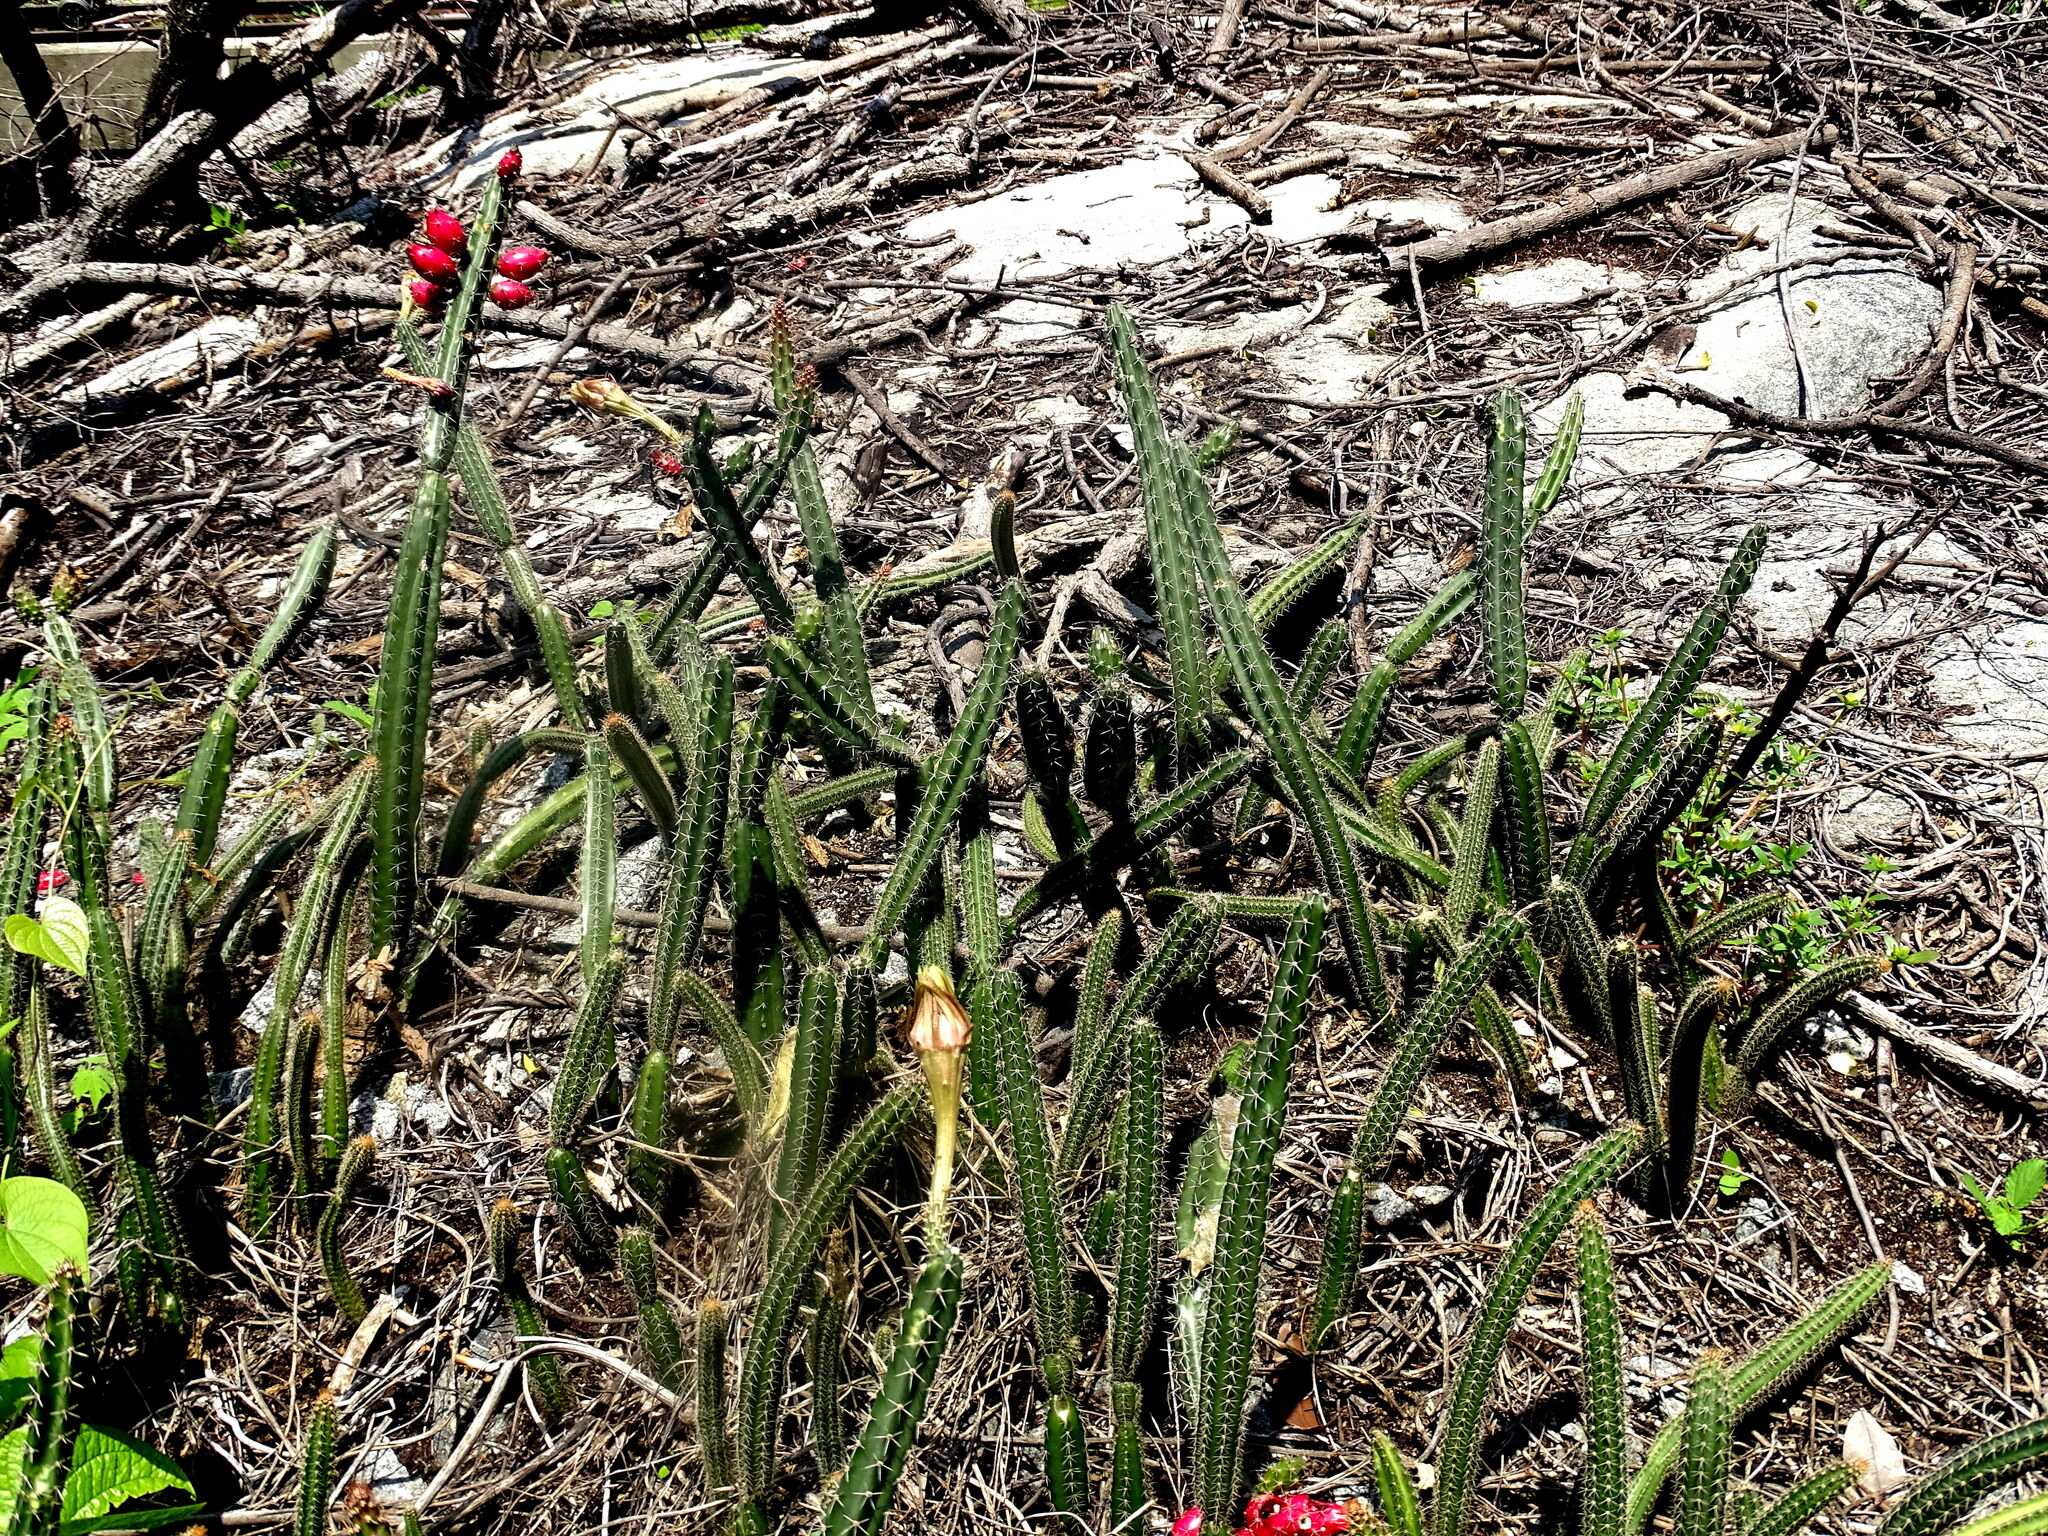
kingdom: Plantae
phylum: Tracheophyta
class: Magnoliopsida
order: Caryophyllales
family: Cactaceae
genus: Acanthocereus
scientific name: Acanthocereus hesperius
